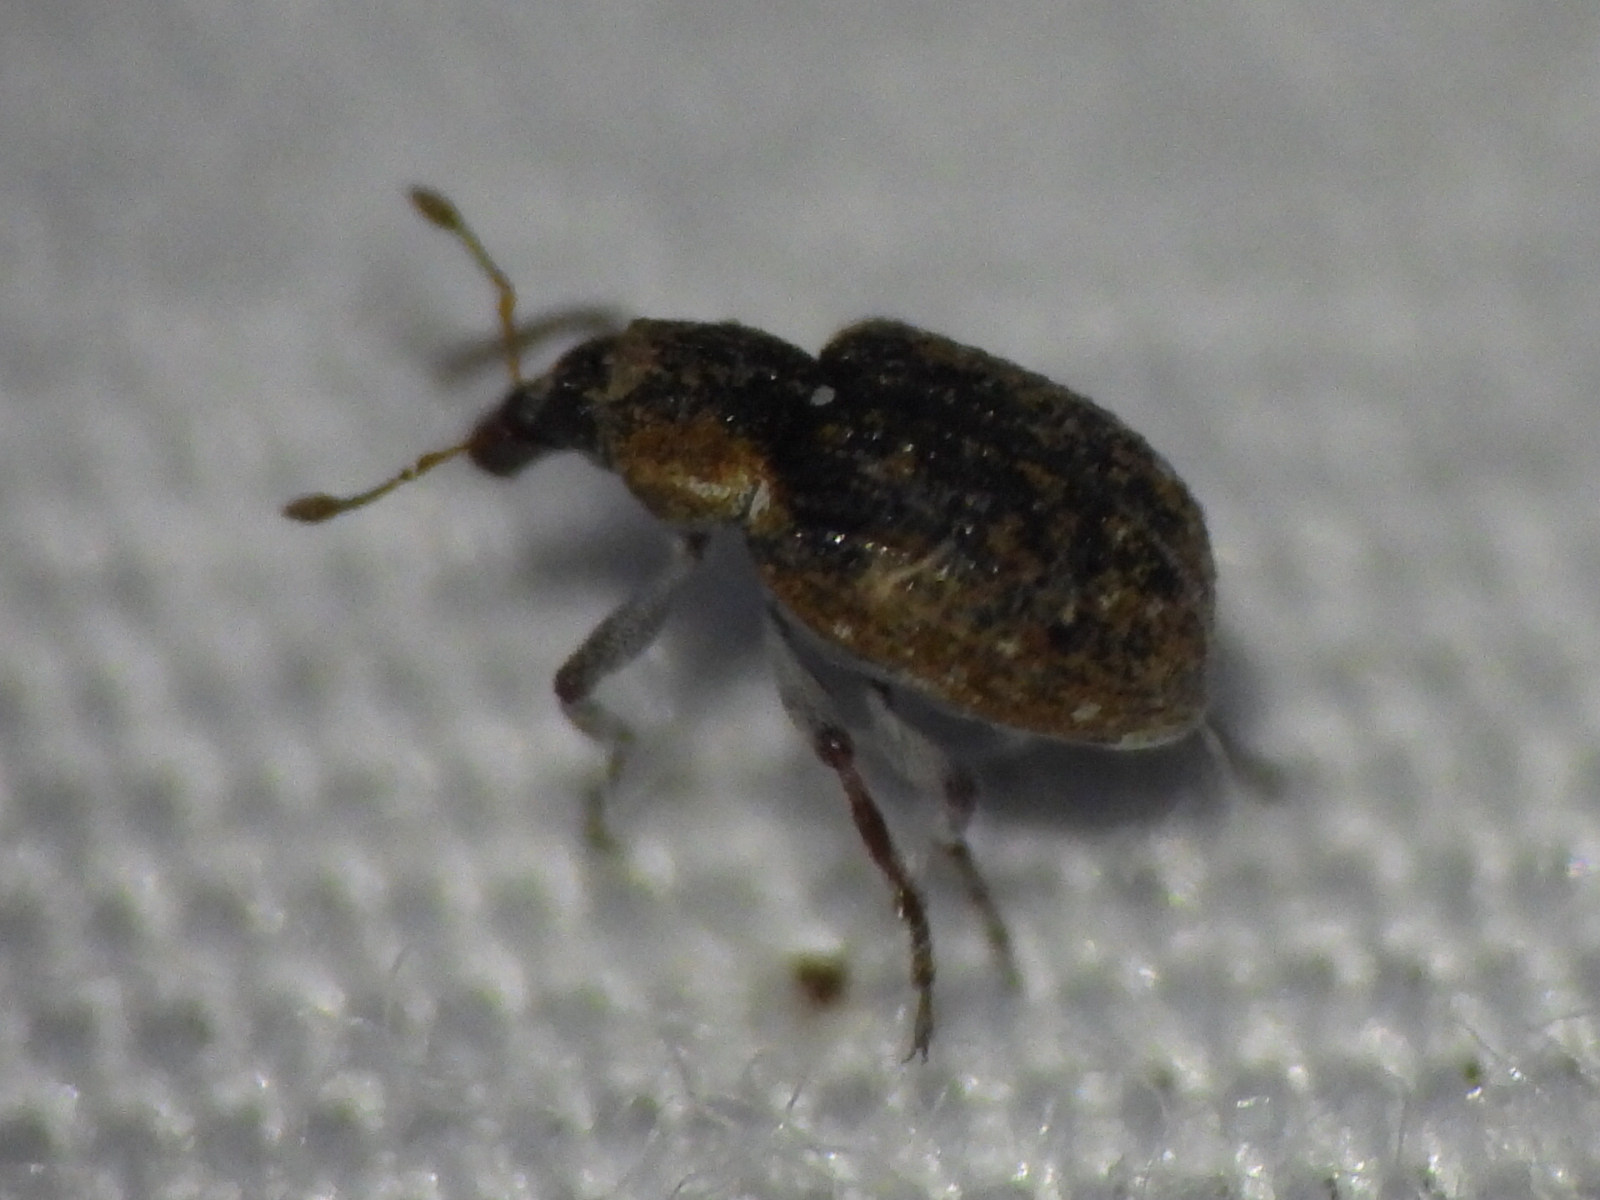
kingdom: Animalia
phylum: Arthropoda
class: Insecta
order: Coleoptera
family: Brachyceridae
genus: Stenopelmus
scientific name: Stenopelmus rufinasus
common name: Azolla weevil
